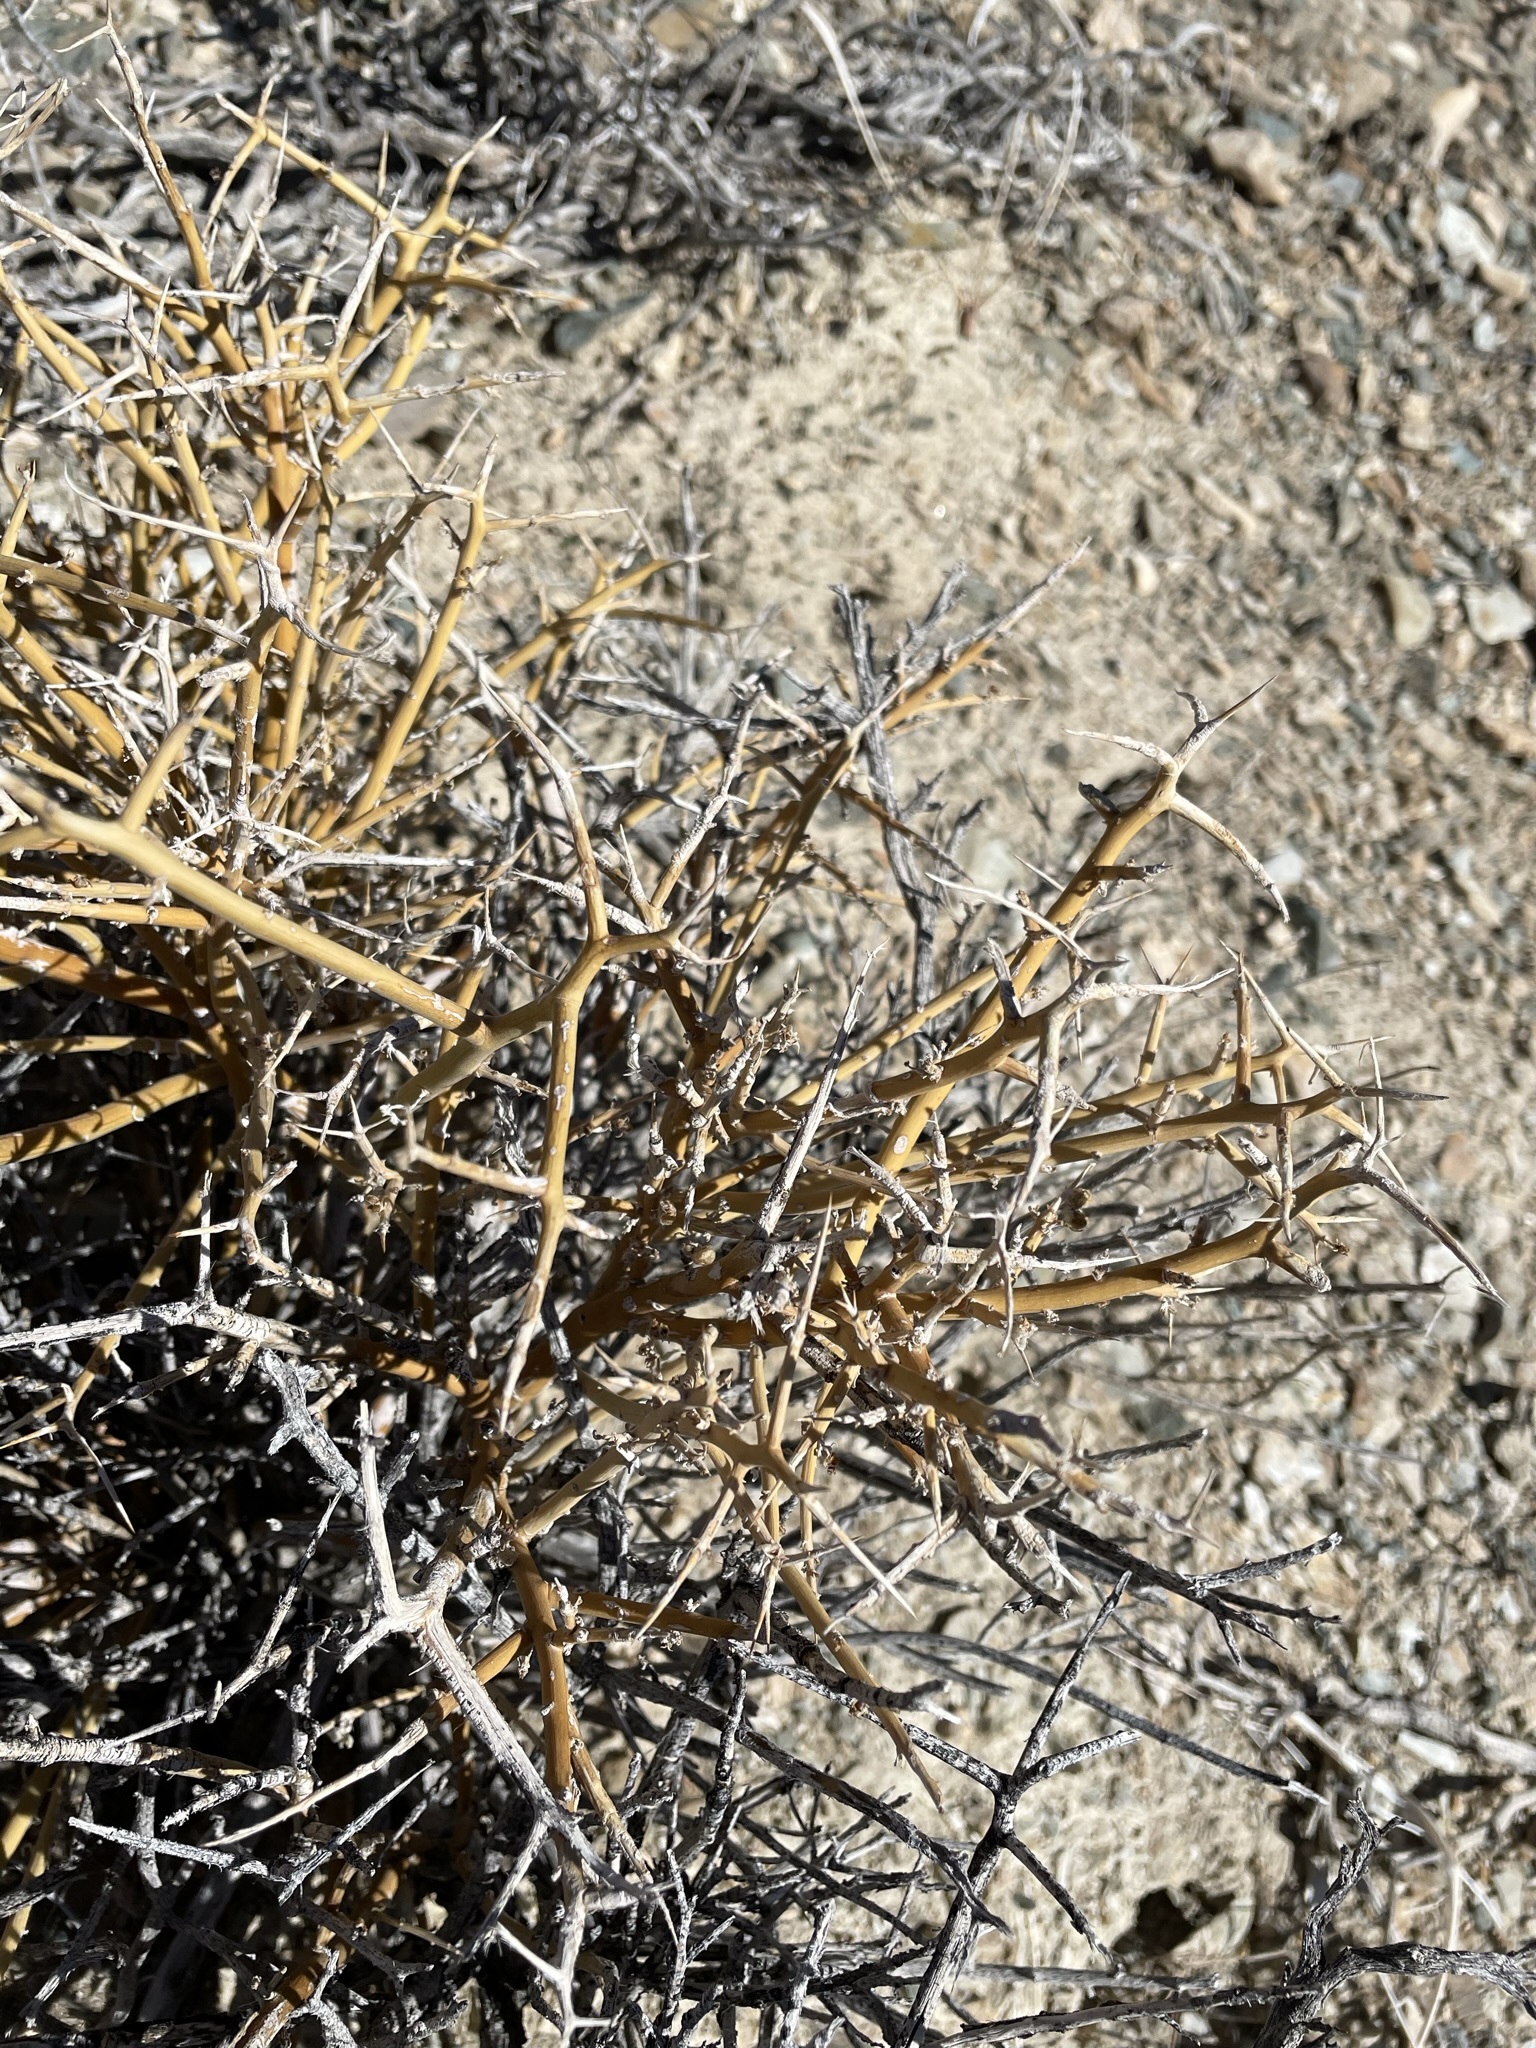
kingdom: Plantae
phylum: Tracheophyta
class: Magnoliopsida
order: Lamiales
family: Oleaceae
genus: Menodora
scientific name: Menodora spinescens
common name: Spiny menodora
